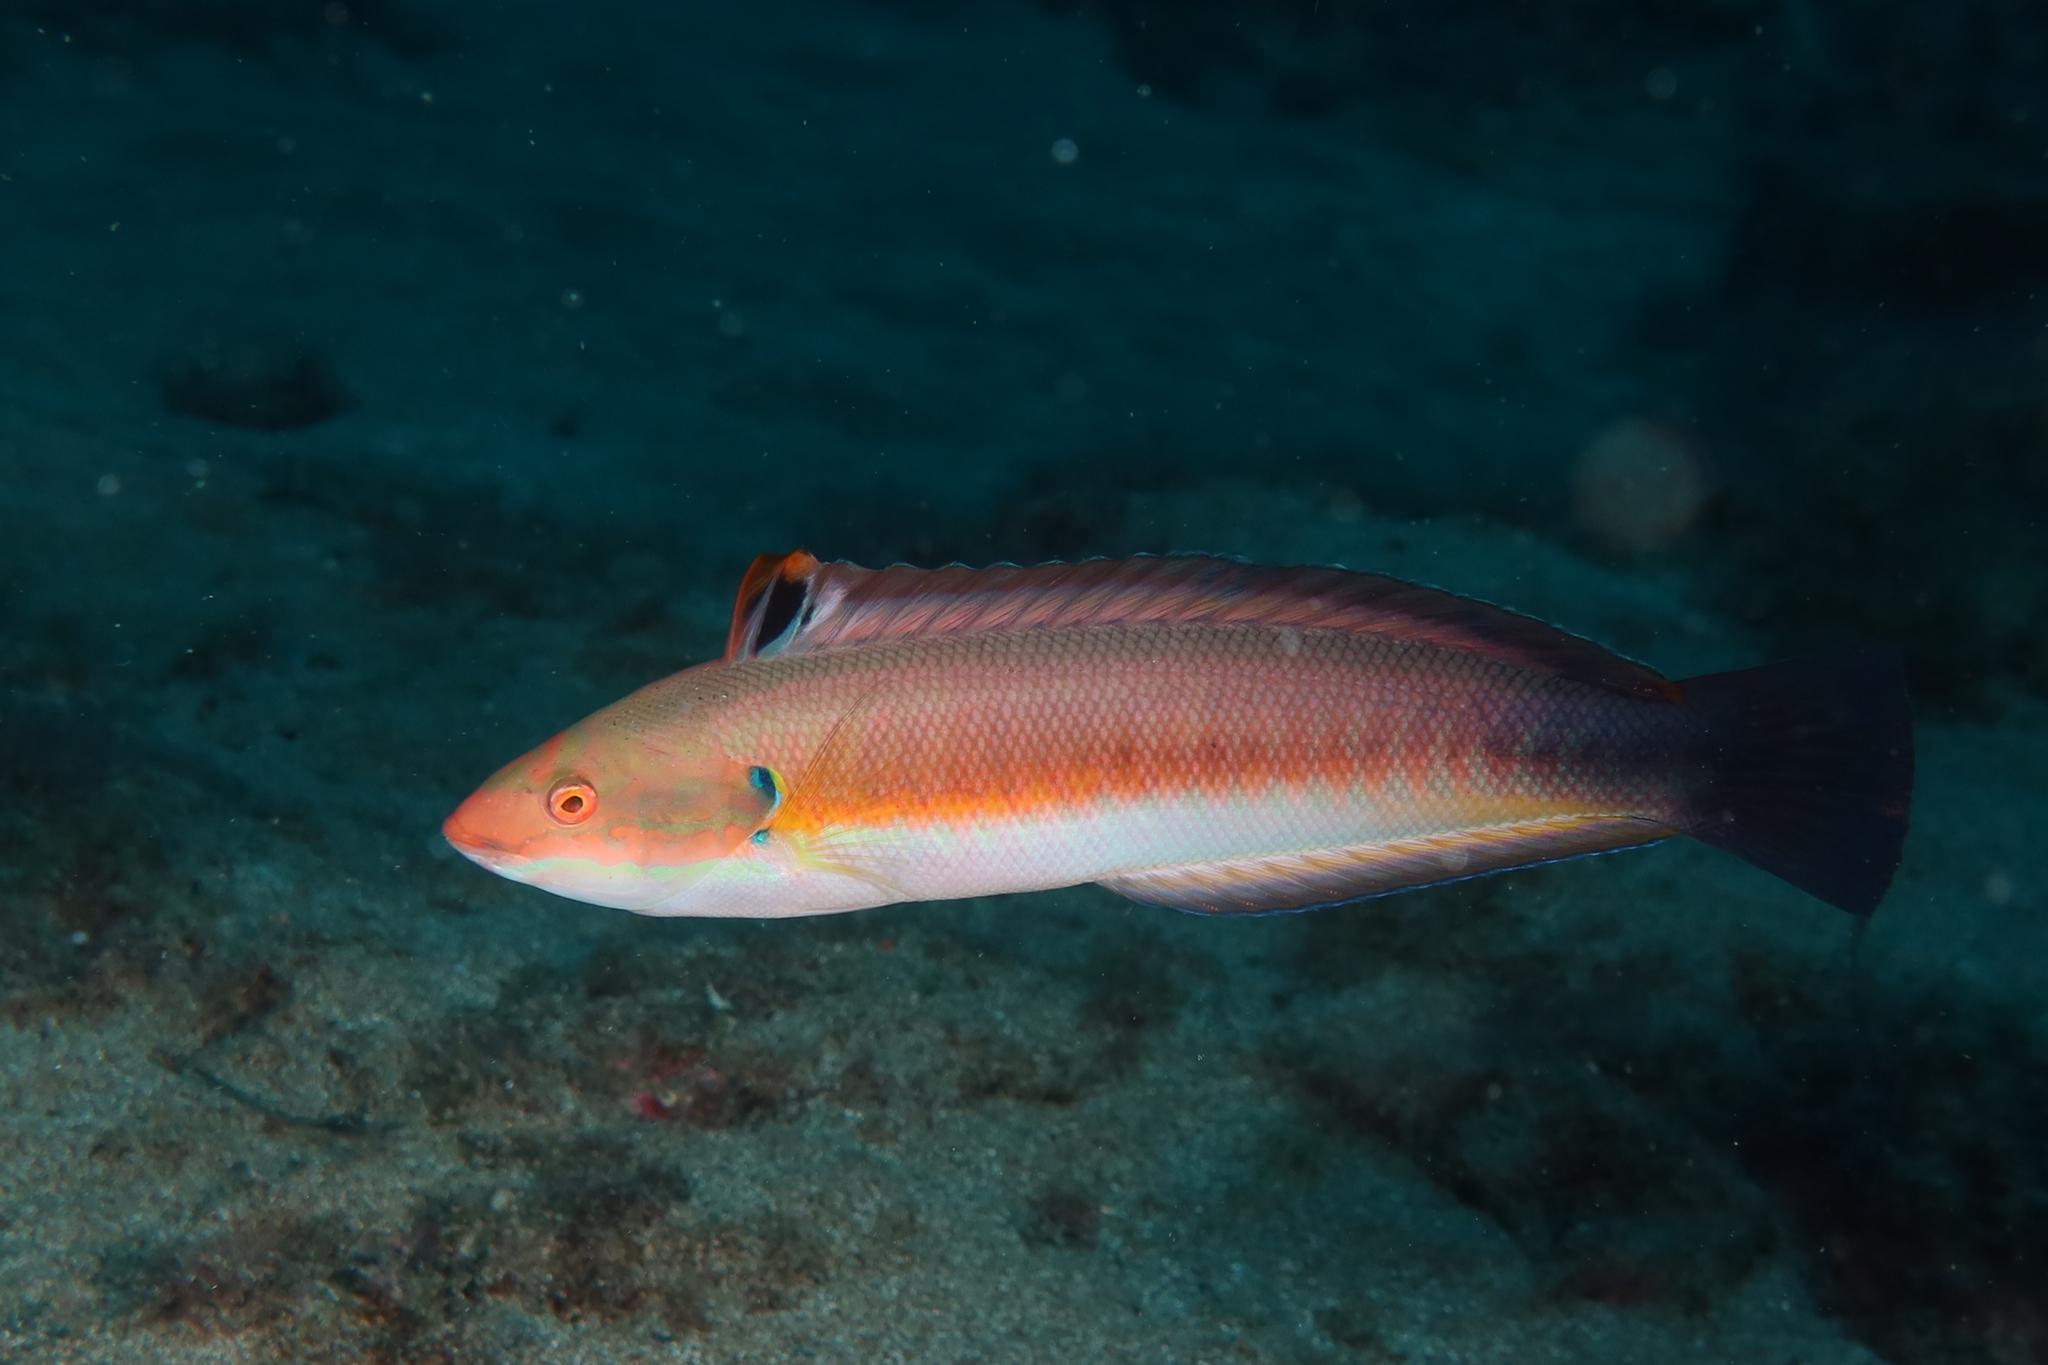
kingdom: Animalia
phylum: Chordata
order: Perciformes
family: Labridae
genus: Coris
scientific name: Coris
